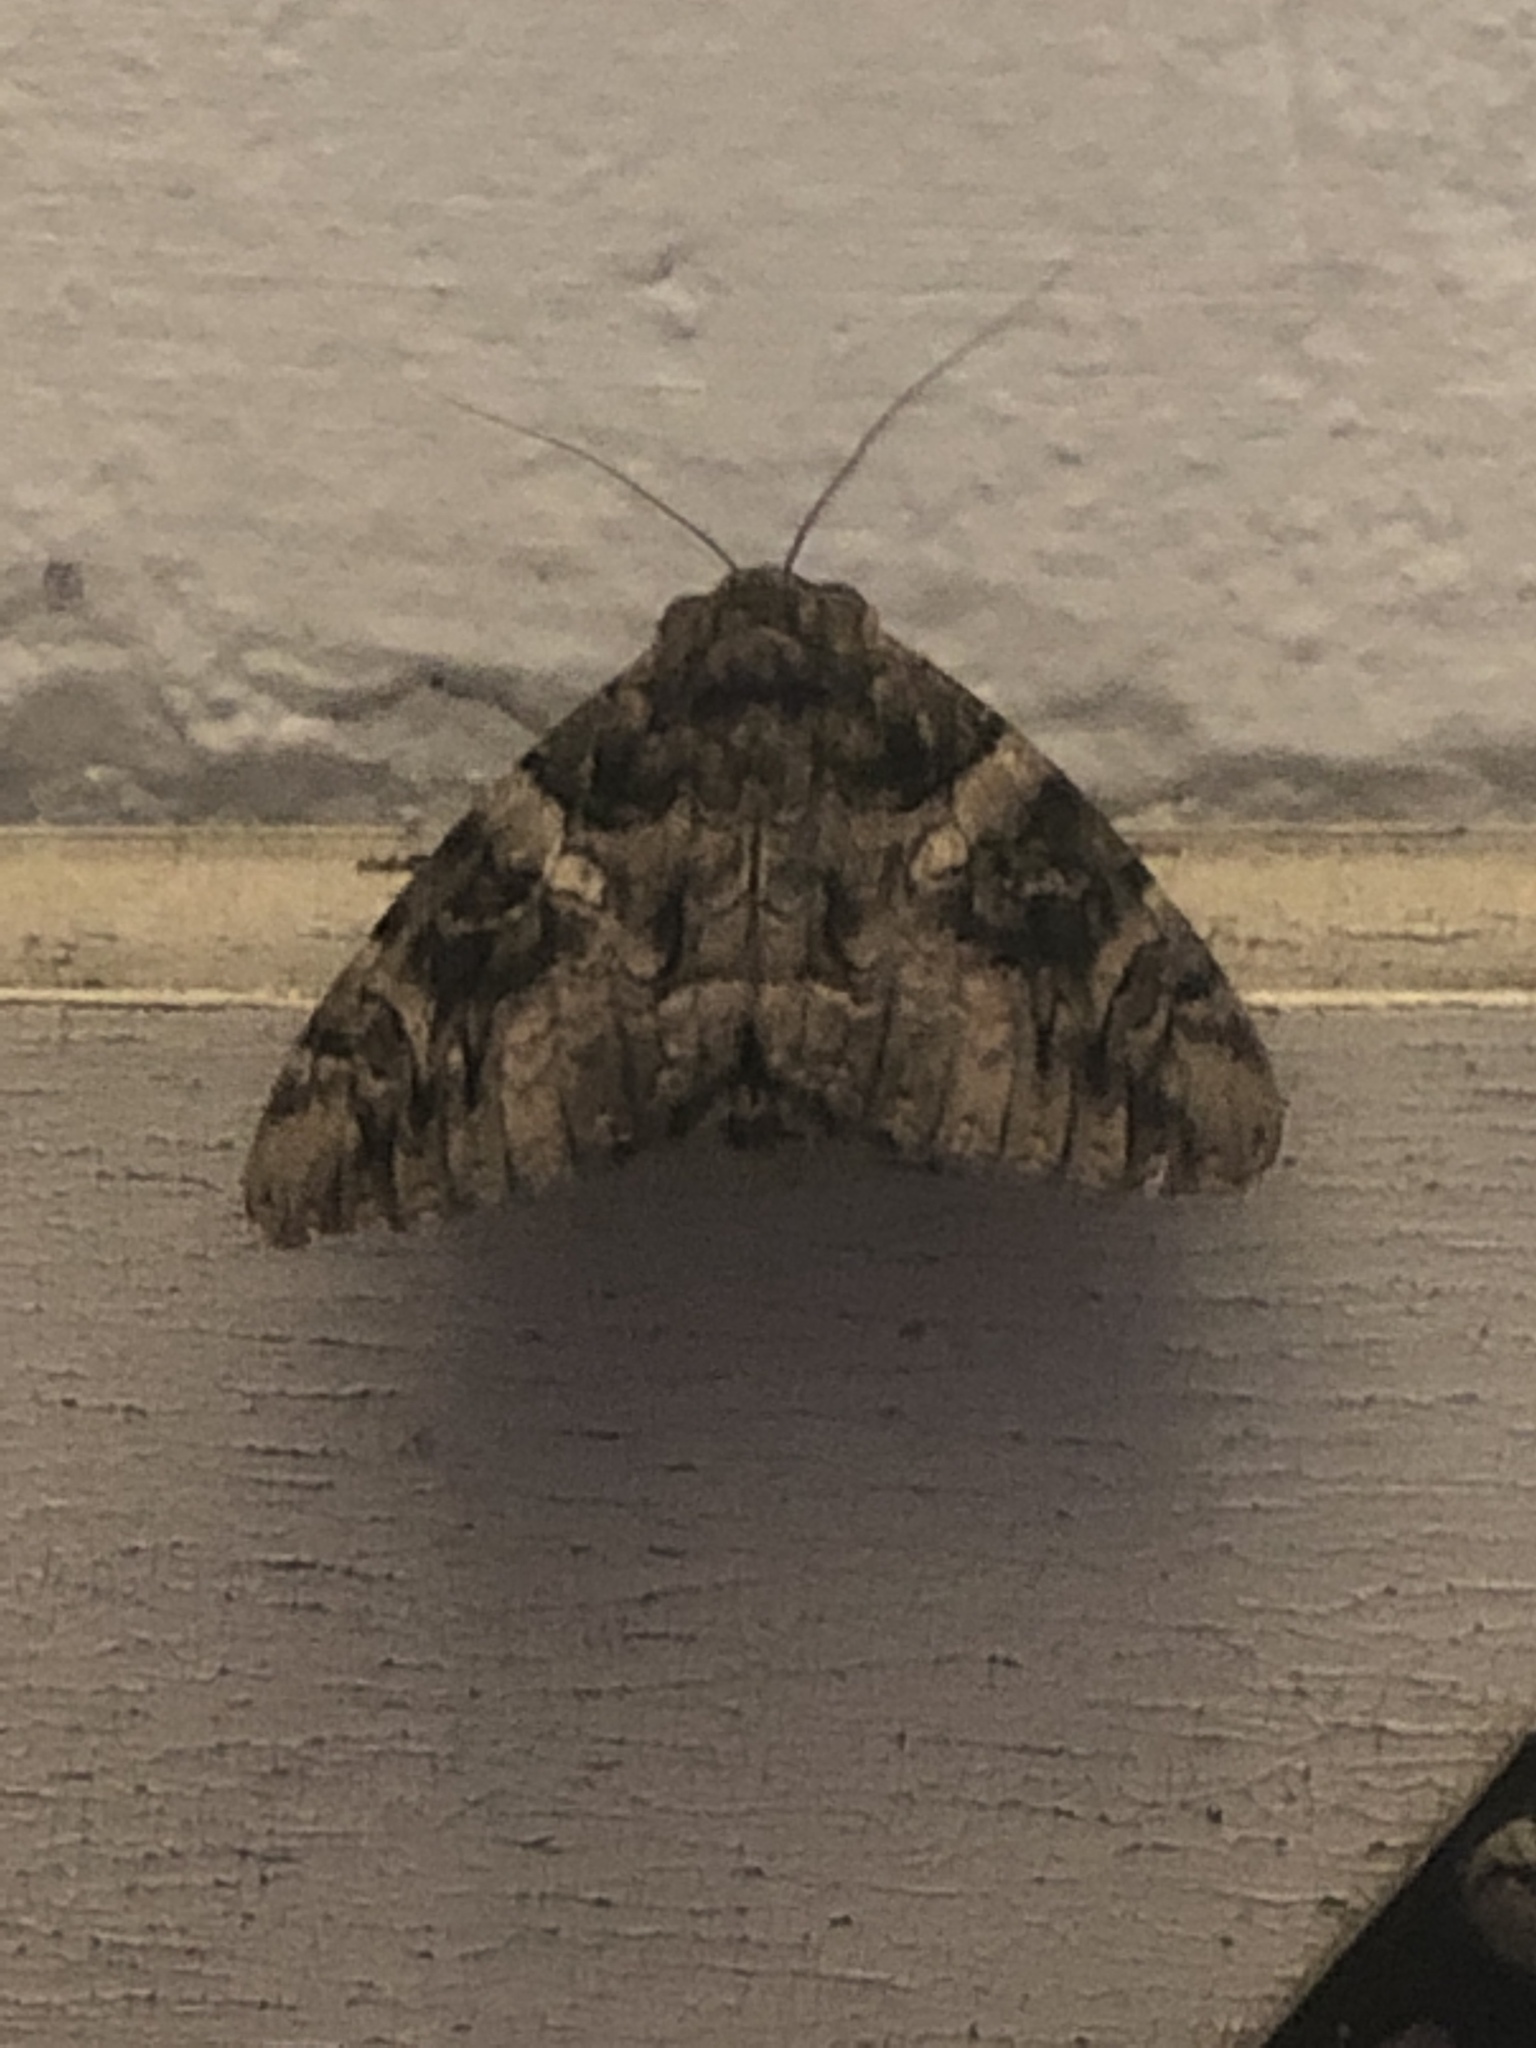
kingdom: Animalia
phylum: Arthropoda
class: Insecta
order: Lepidoptera
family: Erebidae
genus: Catocala
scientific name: Catocala piatrix
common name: The penitent underwing
